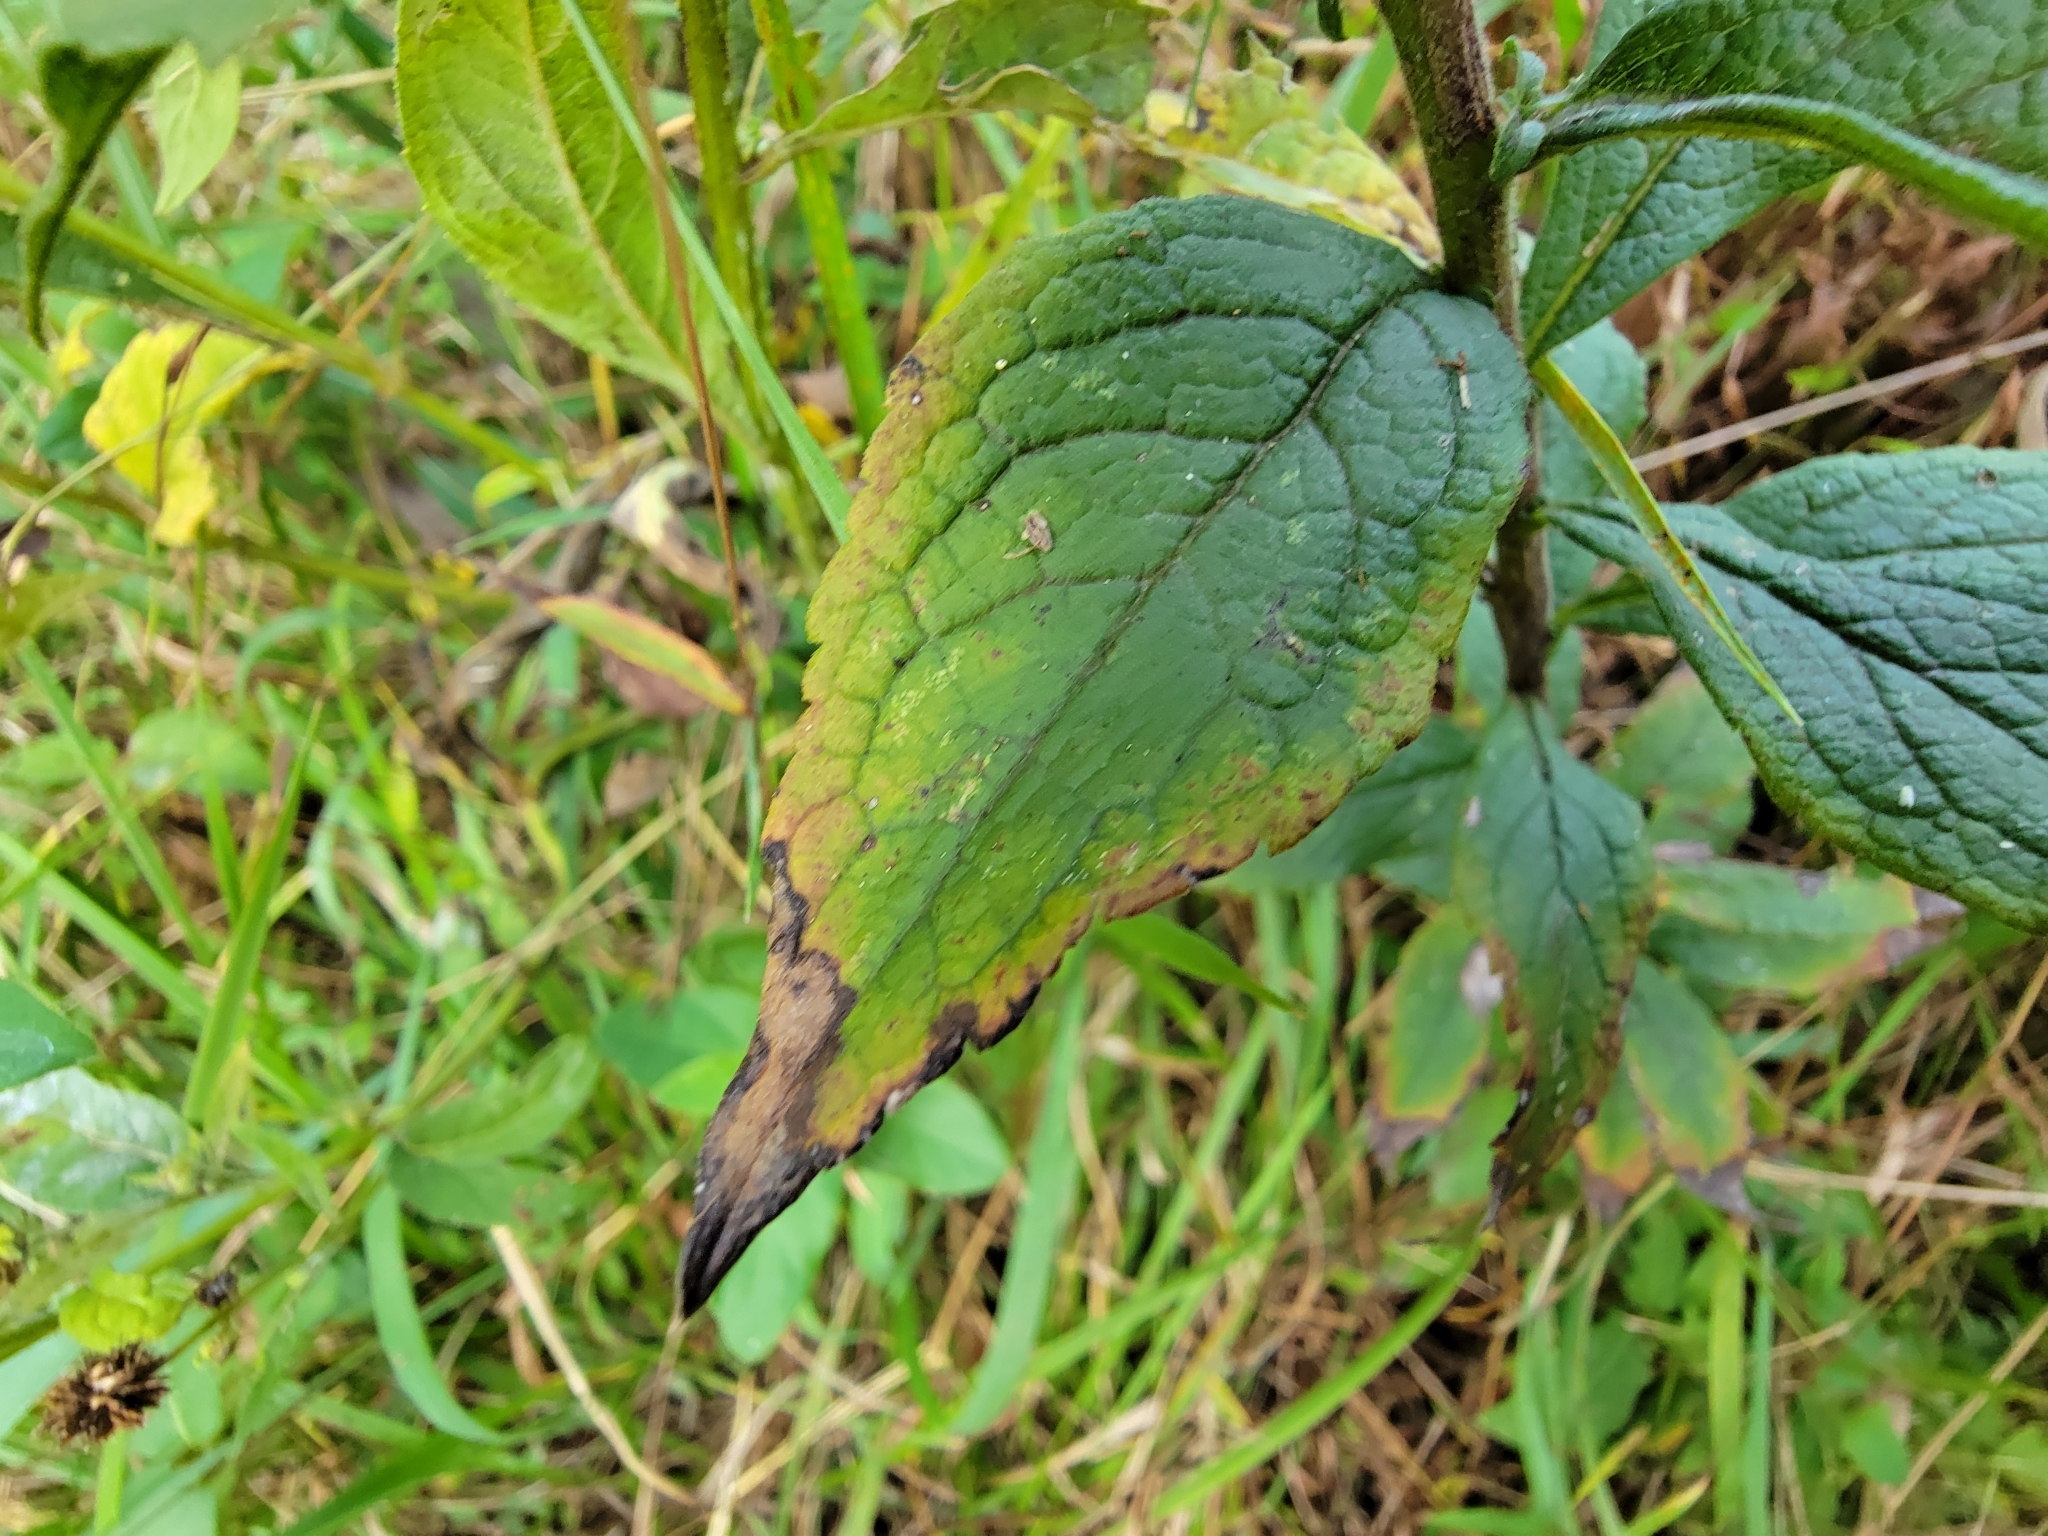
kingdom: Plantae
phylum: Tracheophyta
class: Magnoliopsida
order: Asterales
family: Asteraceae
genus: Solidago
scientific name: Solidago rugosa
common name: Rough-stemmed goldenrod
